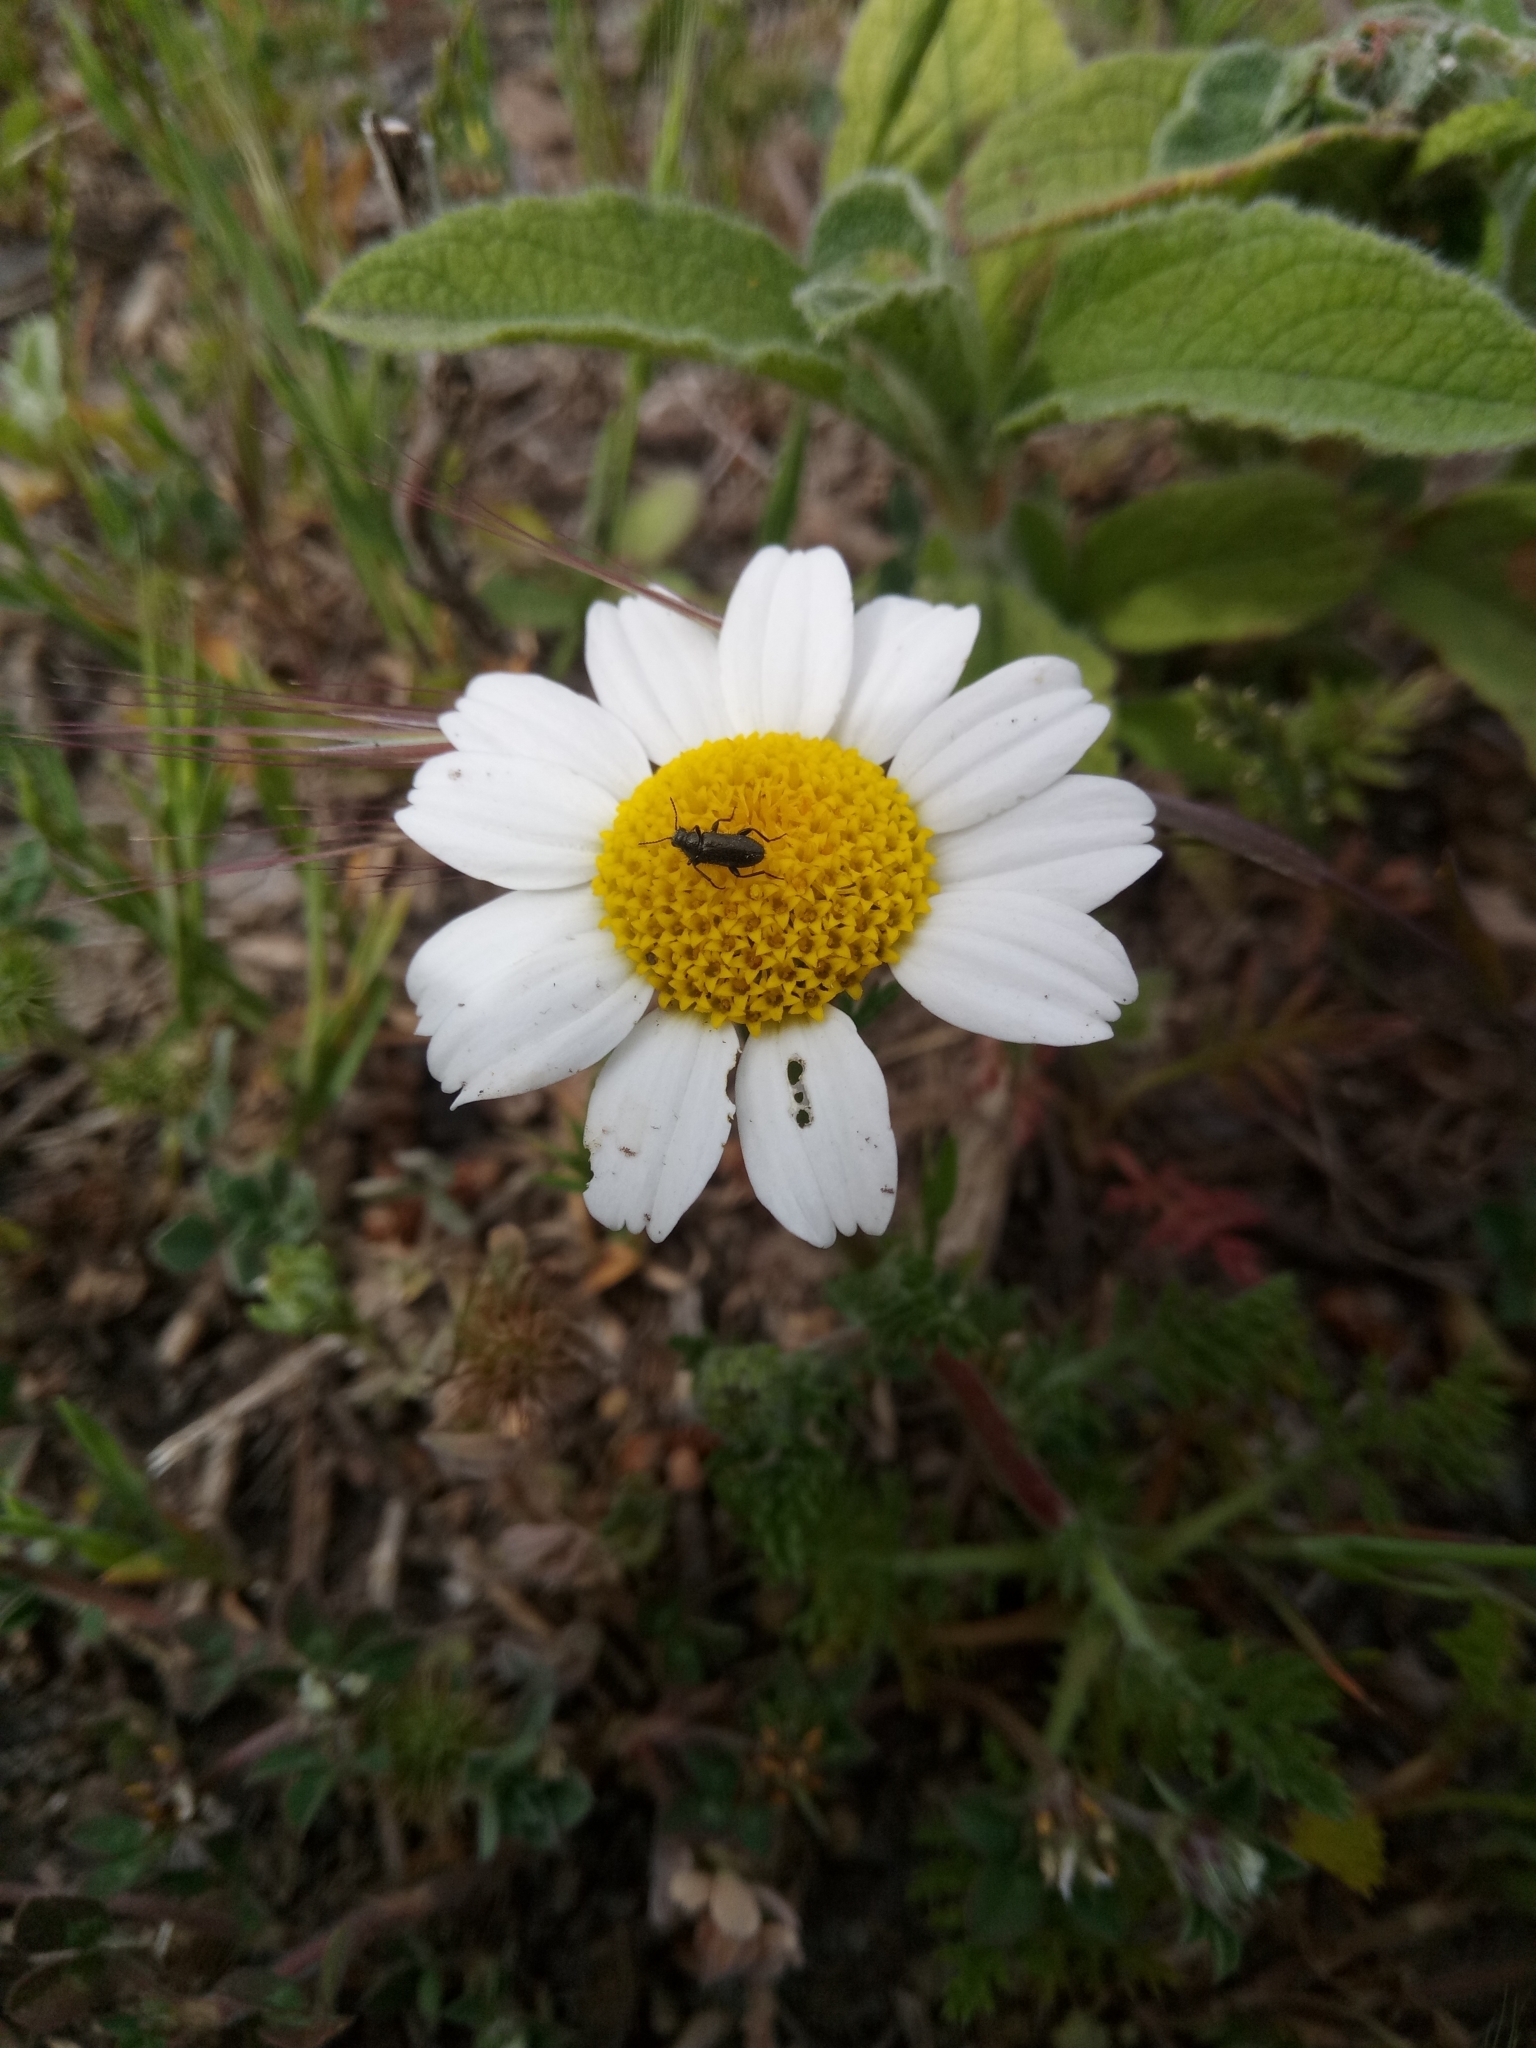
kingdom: Plantae
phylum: Tracheophyta
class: Magnoliopsida
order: Asterales
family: Asteraceae
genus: Anacyclus
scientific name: Anacyclus clavatus
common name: Whitebuttons
